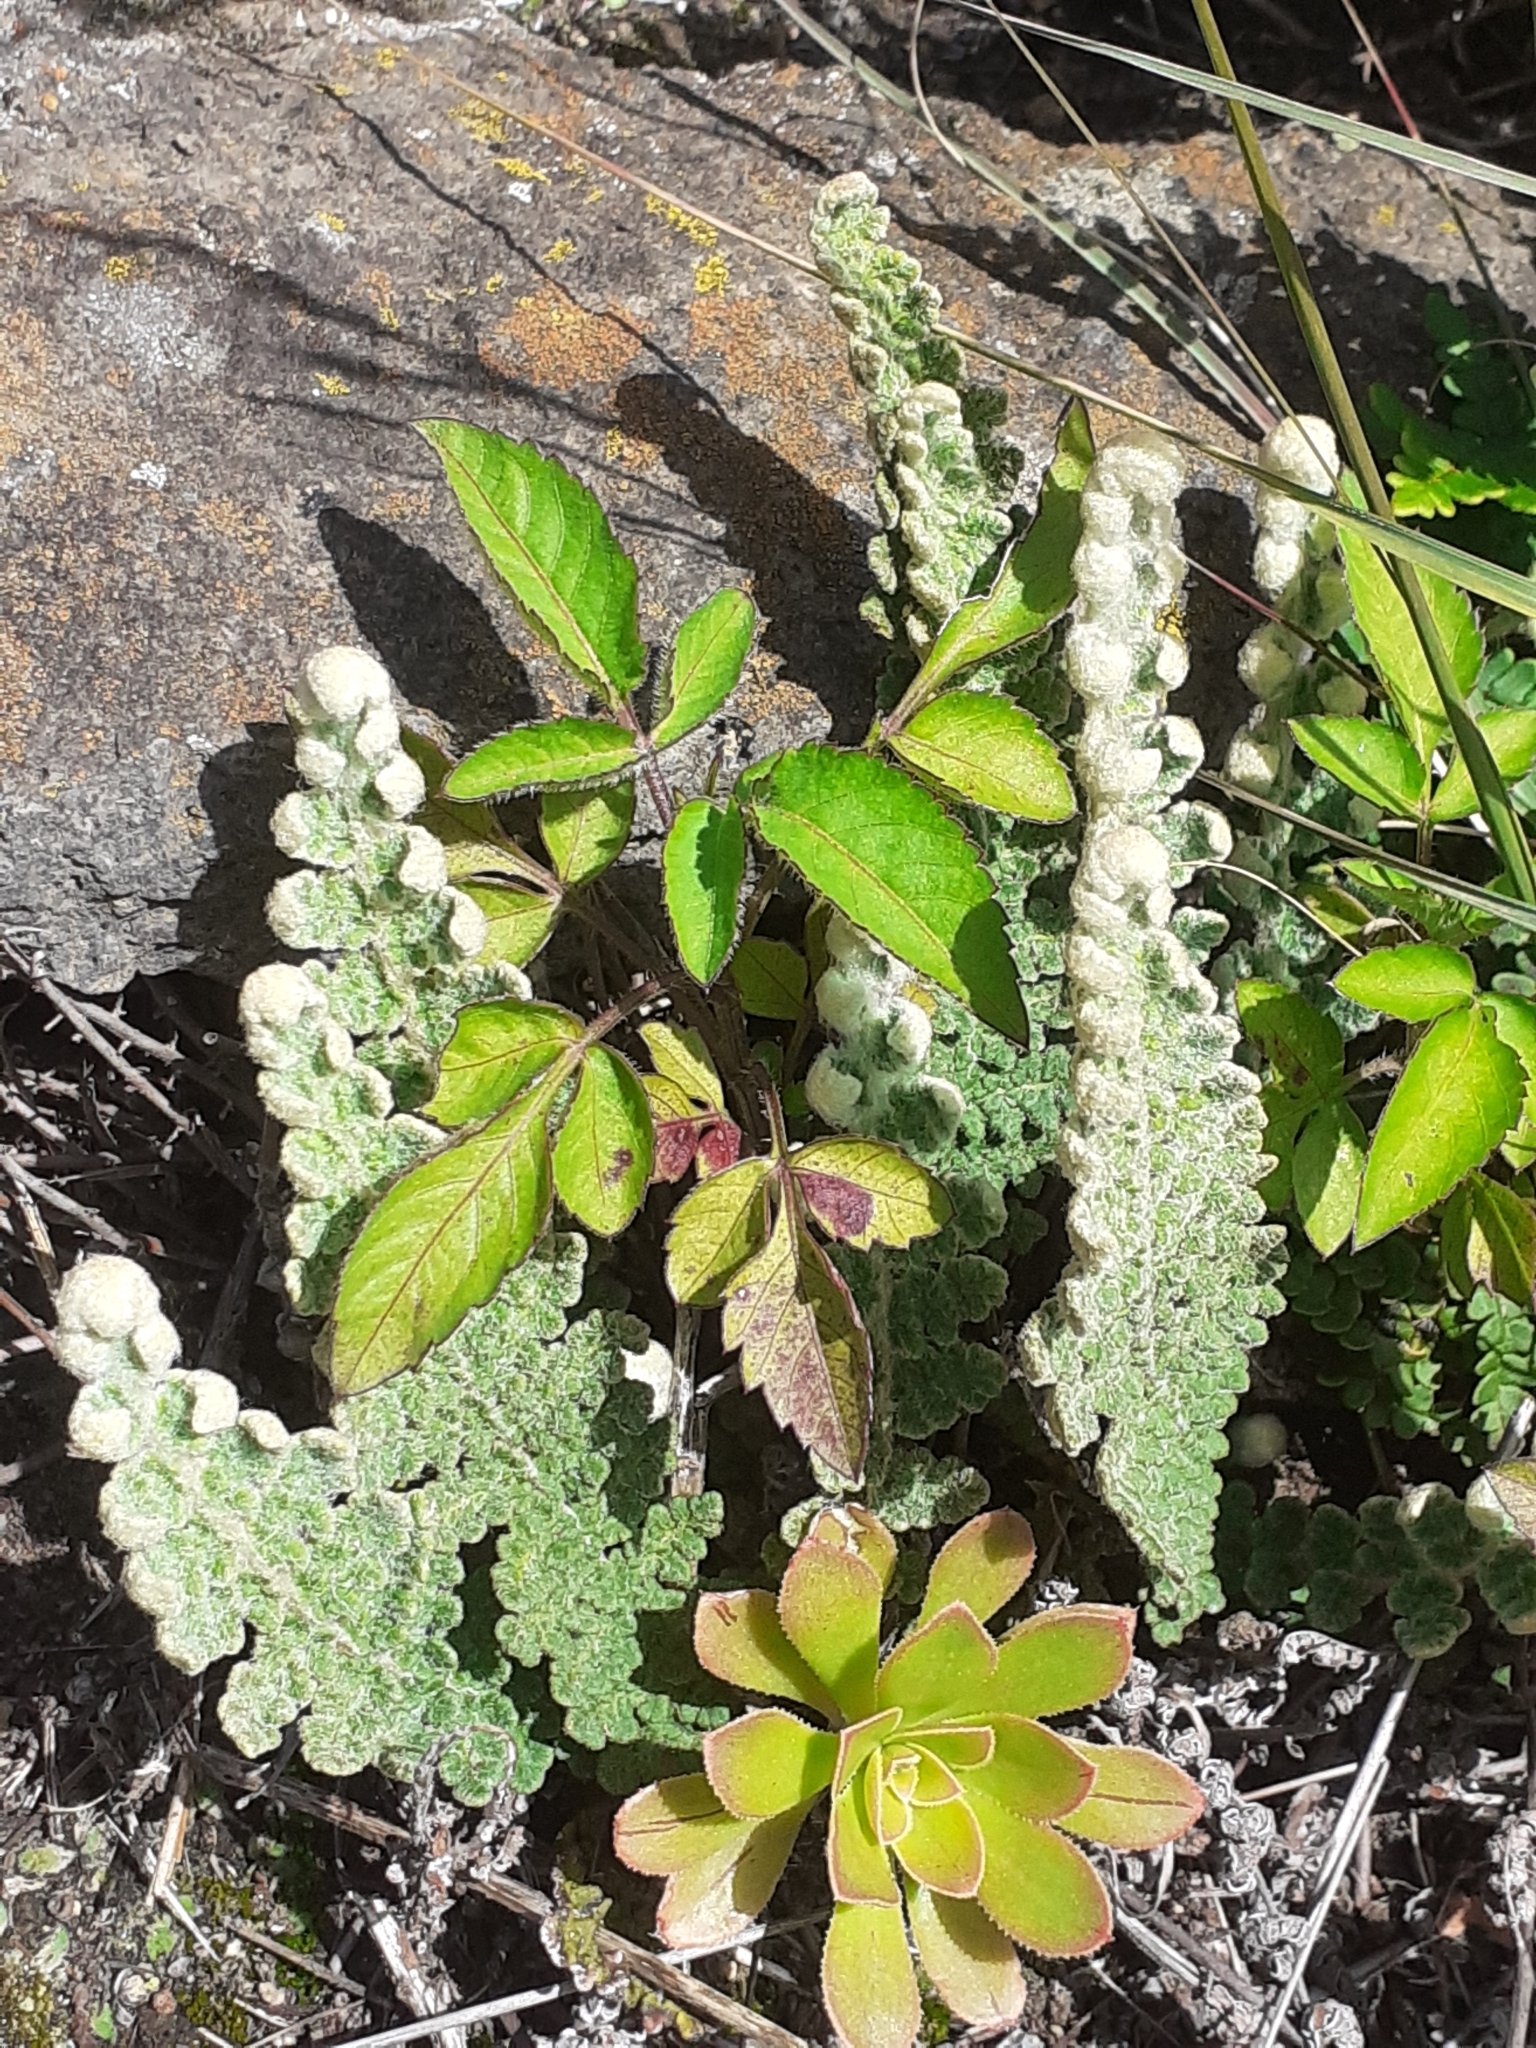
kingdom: Plantae
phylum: Tracheophyta
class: Polypodiopsida
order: Polypodiales
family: Pteridaceae
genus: Cosentinia
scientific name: Cosentinia vellea
